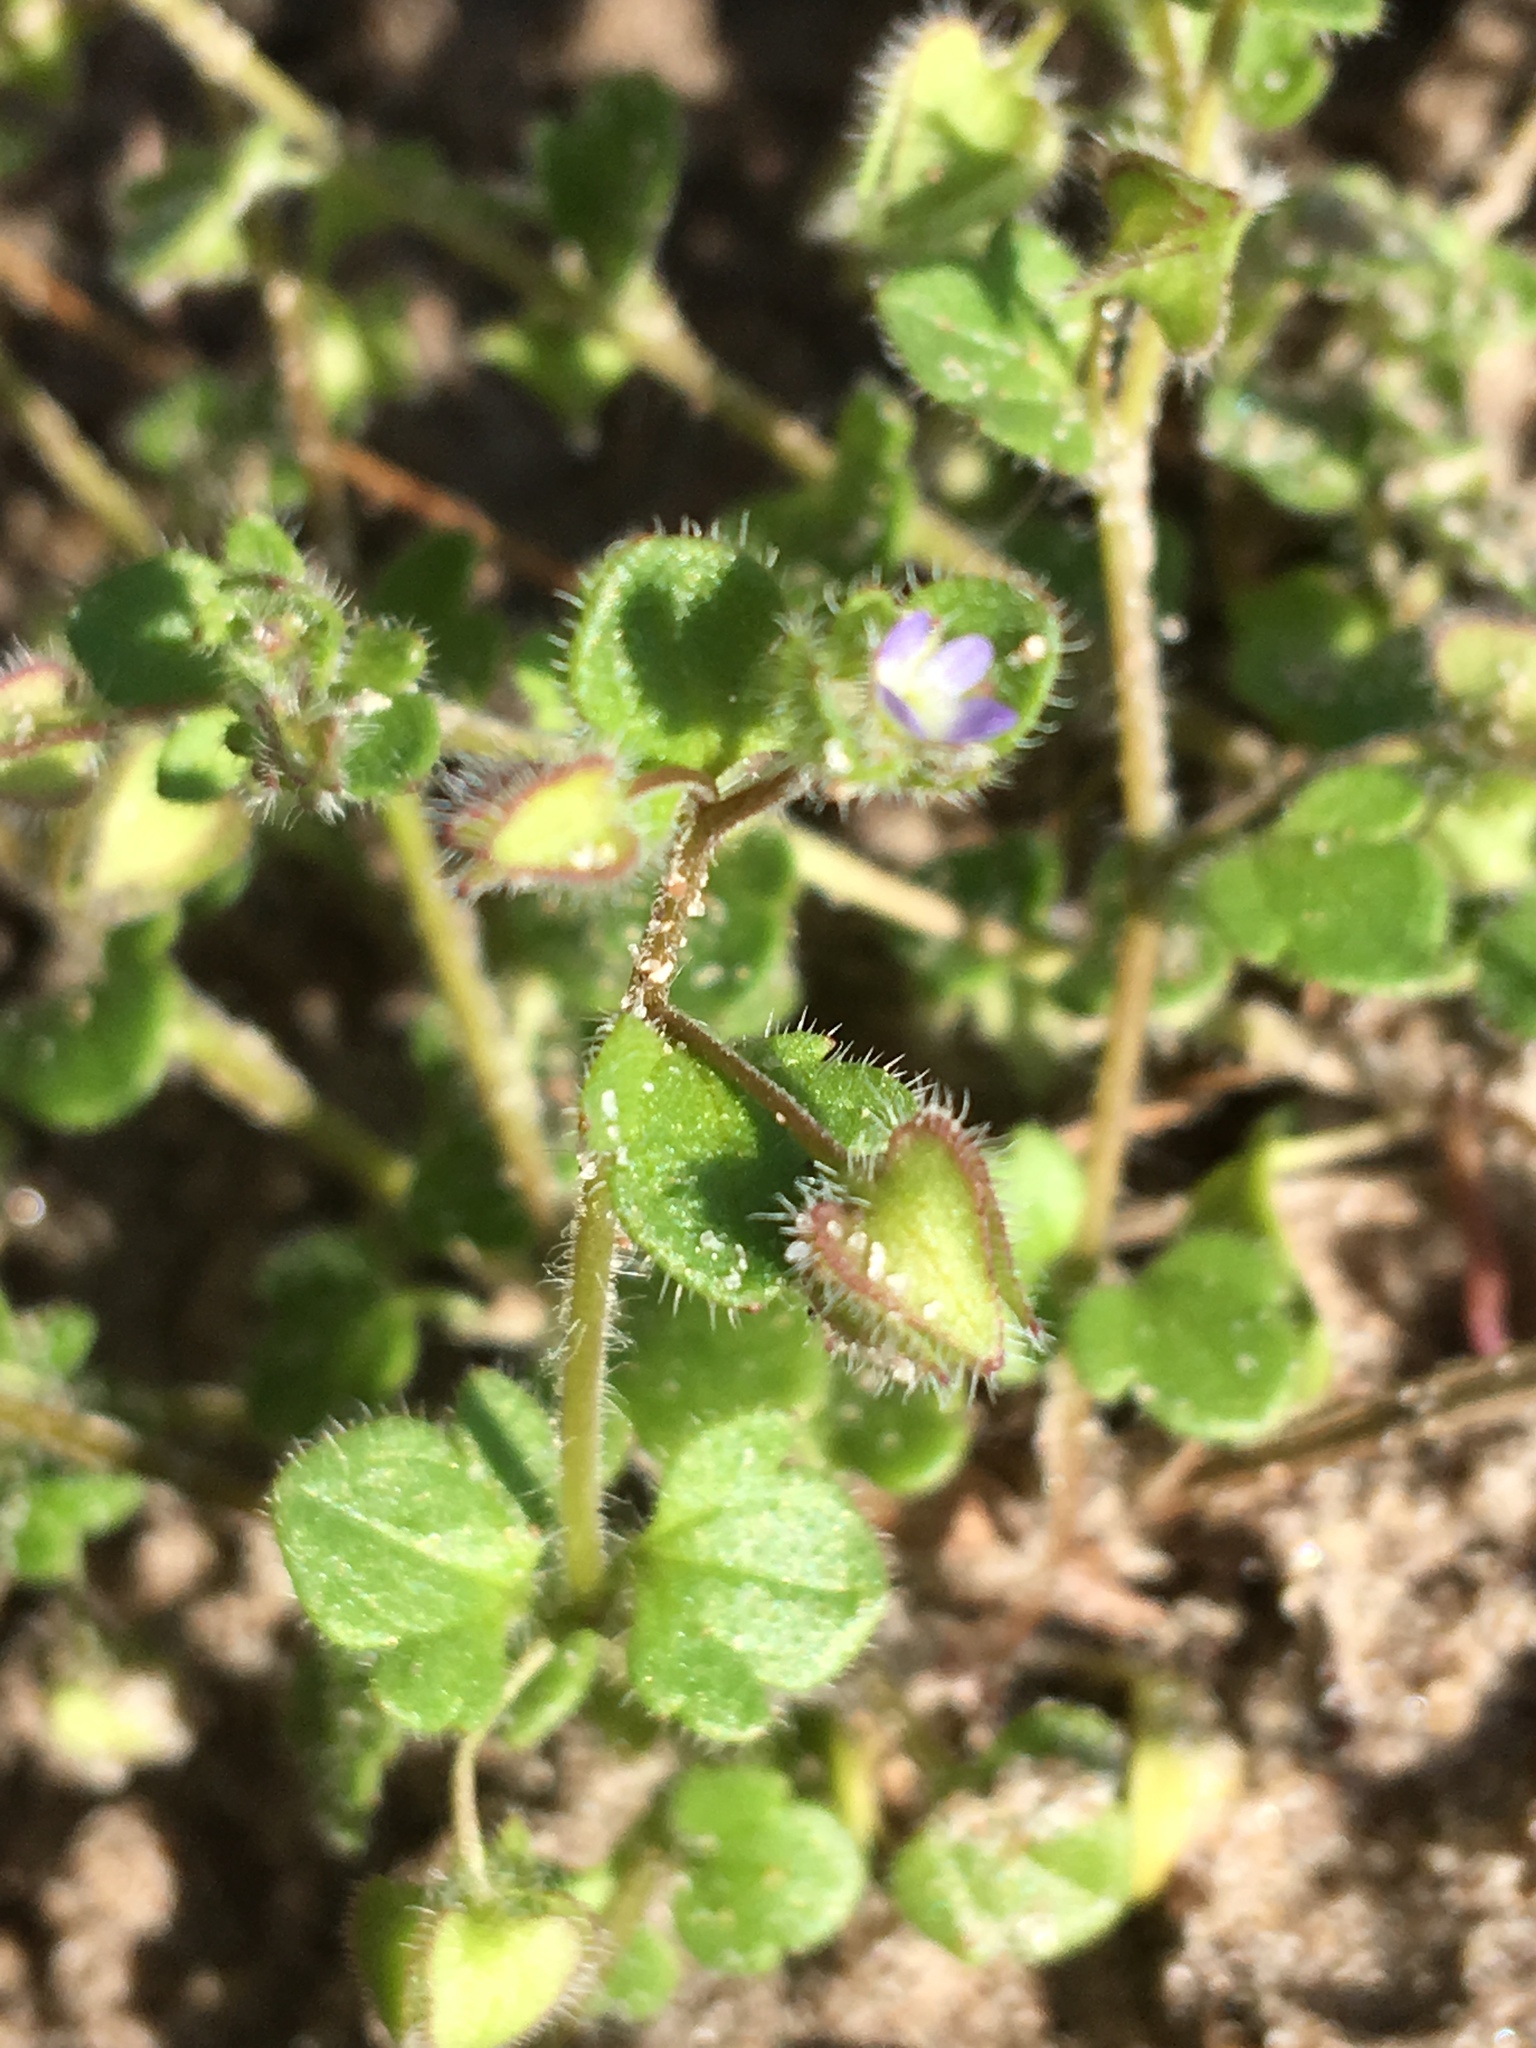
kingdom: Plantae
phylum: Tracheophyta
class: Magnoliopsida
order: Lamiales
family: Plantaginaceae
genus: Veronica
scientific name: Veronica hederifolia
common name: Ivy-leaved speedwell
